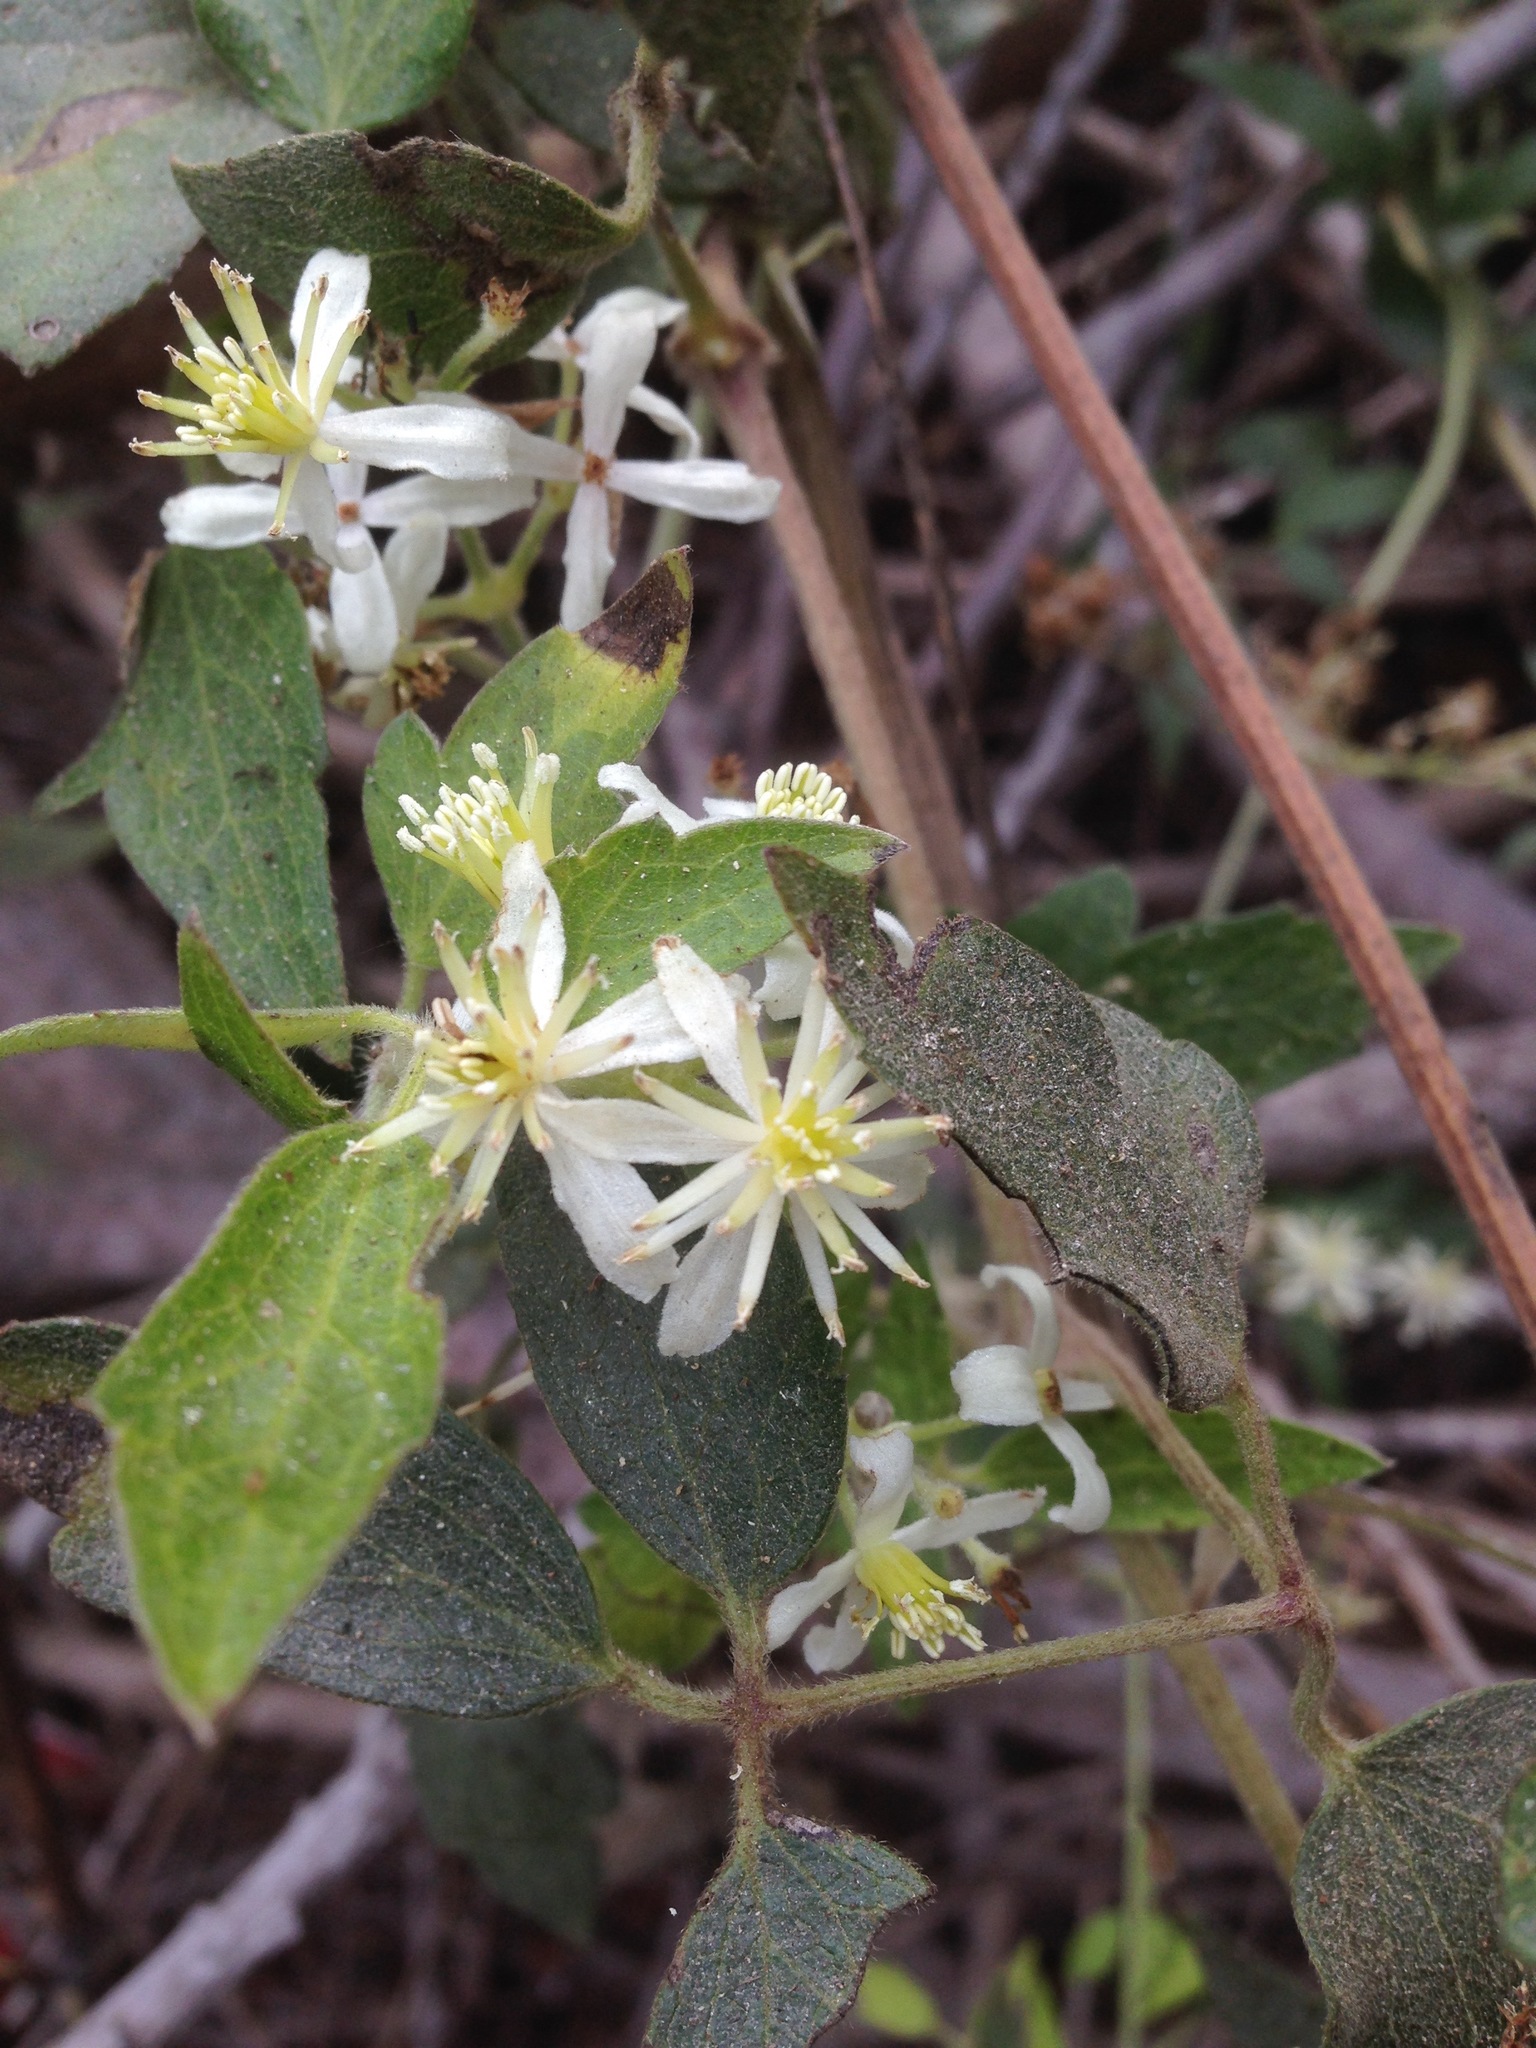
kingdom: Plantae
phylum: Tracheophyta
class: Magnoliopsida
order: Ranunculales
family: Ranunculaceae
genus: Clematis
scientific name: Clematis ligusticifolia
